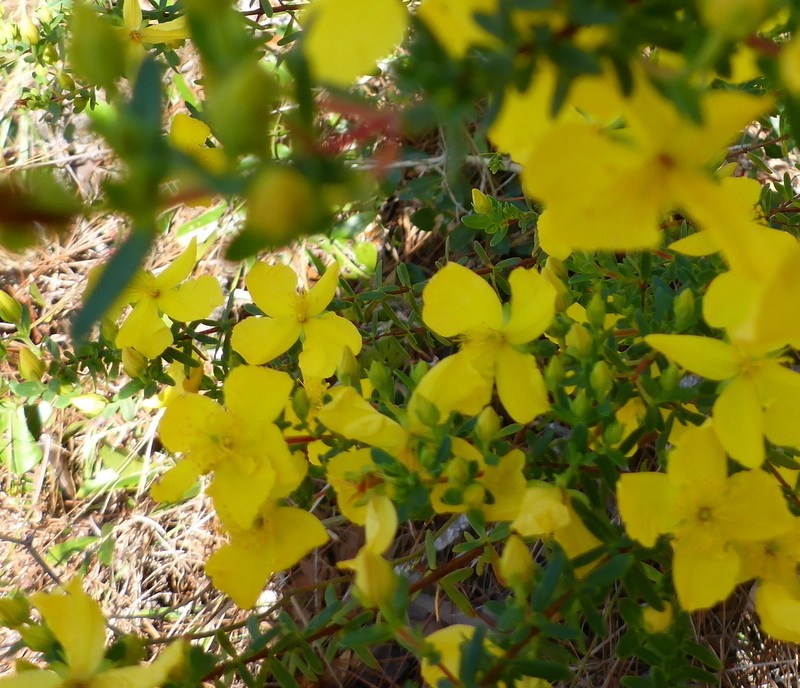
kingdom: Plantae
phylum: Tracheophyta
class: Magnoliopsida
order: Malpighiales
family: Hypericaceae
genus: Hypericum
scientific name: Hypericum microsepalum
